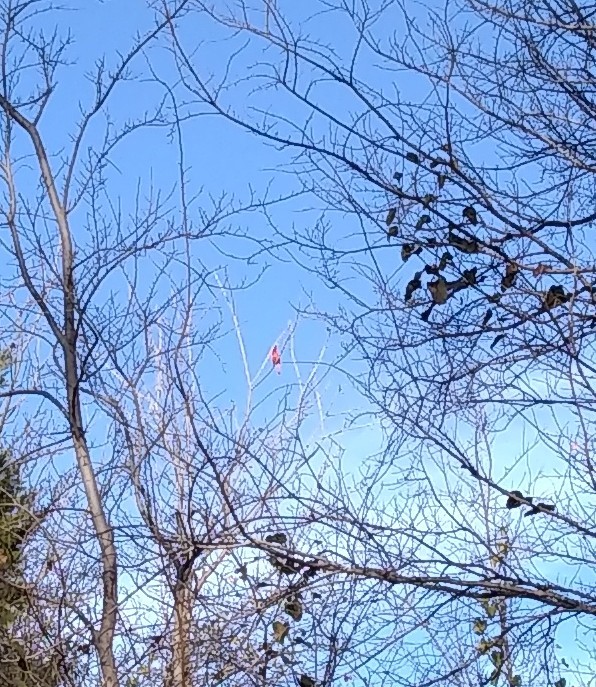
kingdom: Animalia
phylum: Chordata
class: Aves
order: Passeriformes
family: Cardinalidae
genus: Cardinalis
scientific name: Cardinalis cardinalis
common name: Northern cardinal
